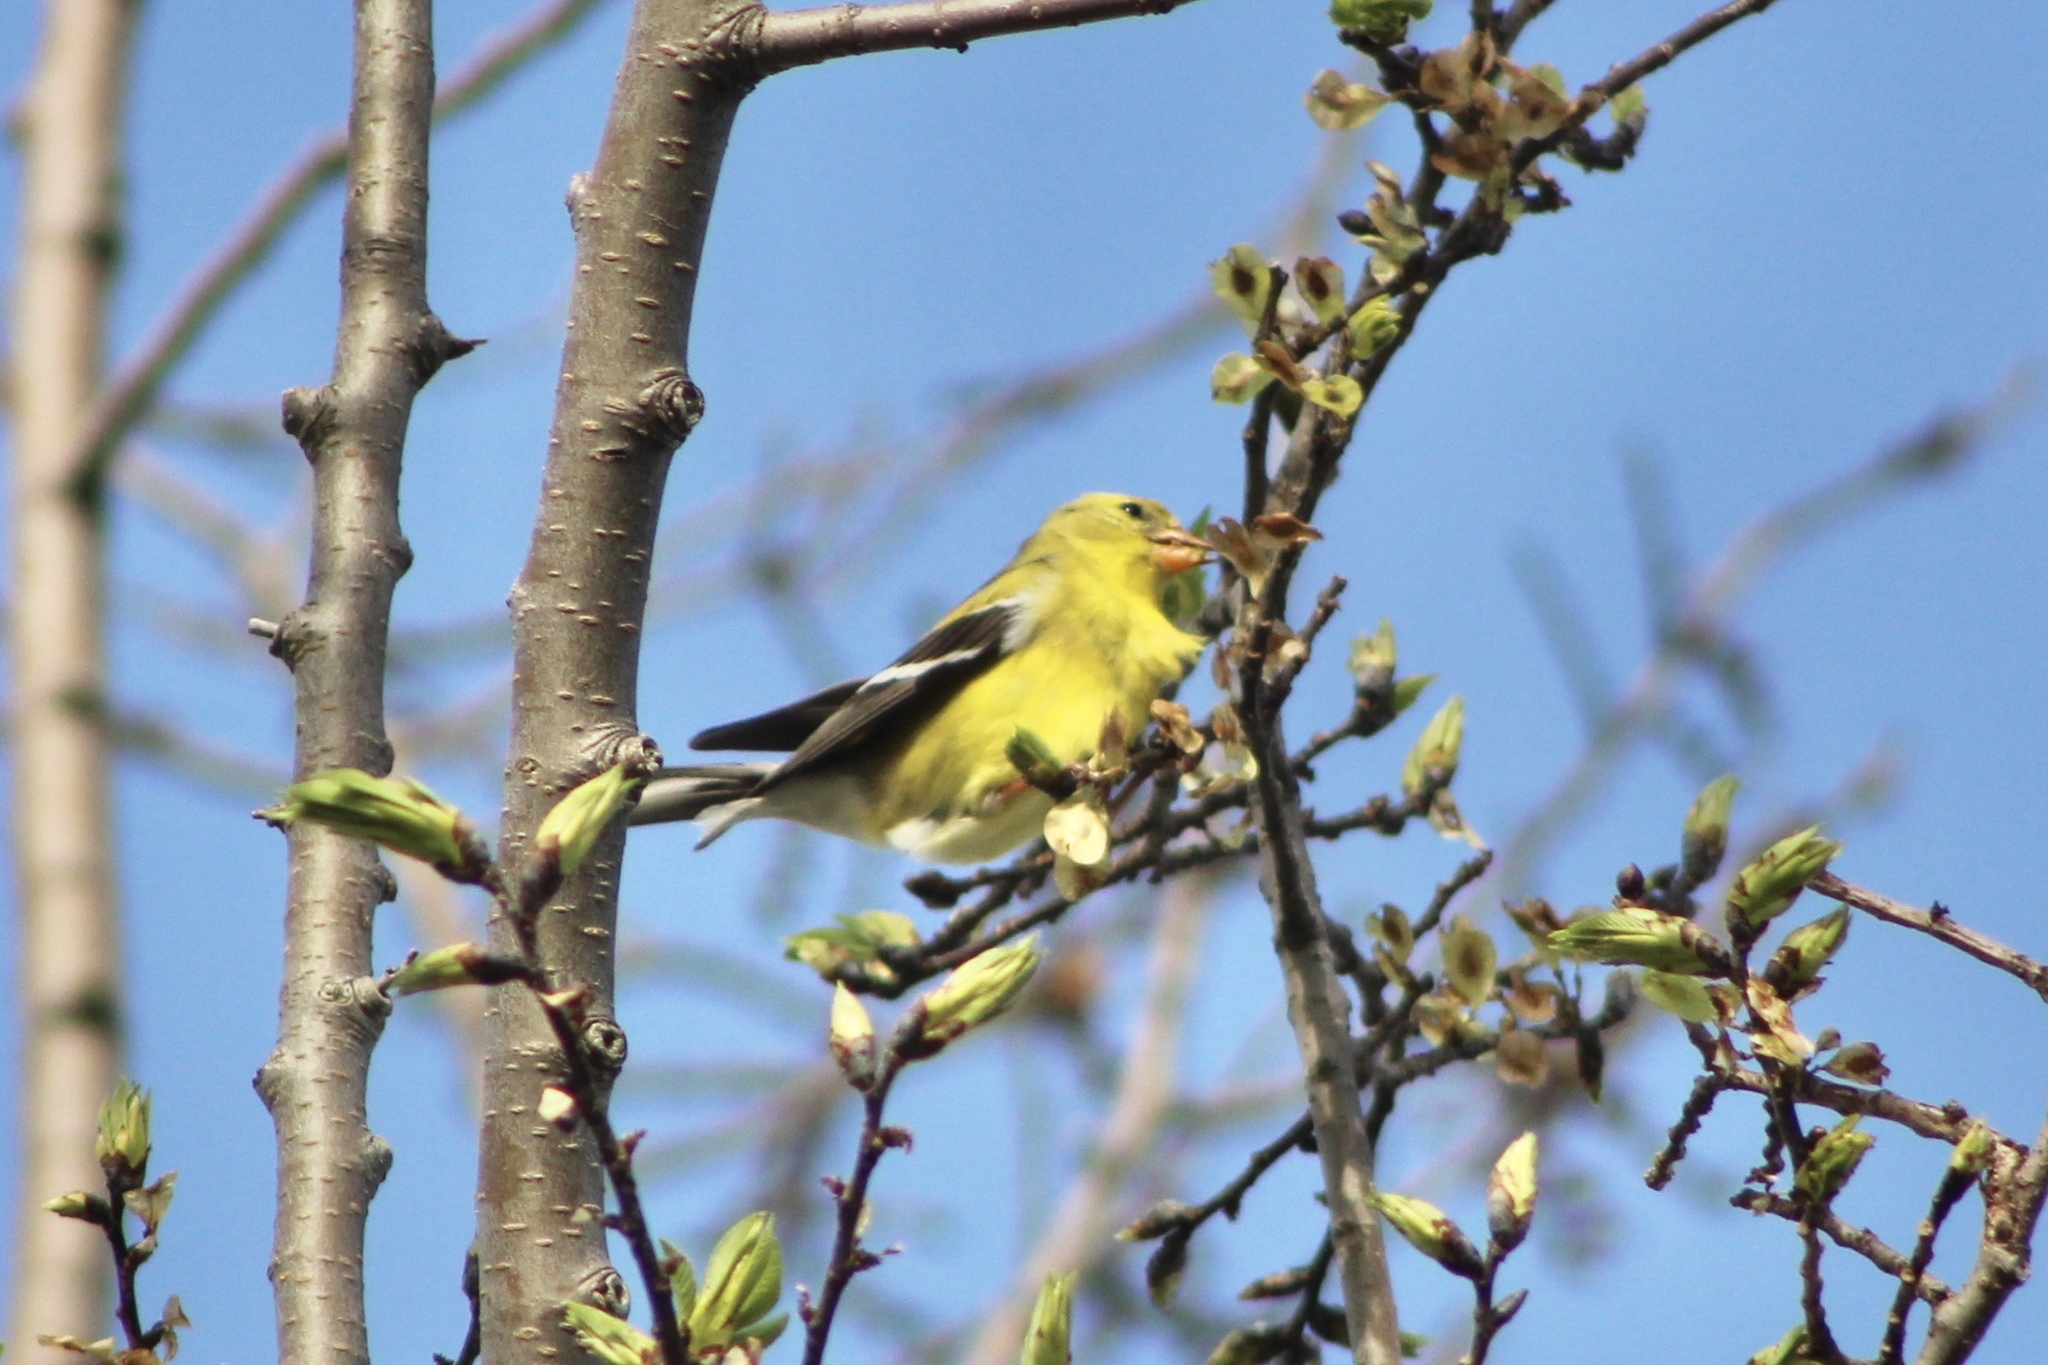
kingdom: Animalia
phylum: Chordata
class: Aves
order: Passeriformes
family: Fringillidae
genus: Spinus
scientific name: Spinus tristis
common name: American goldfinch
